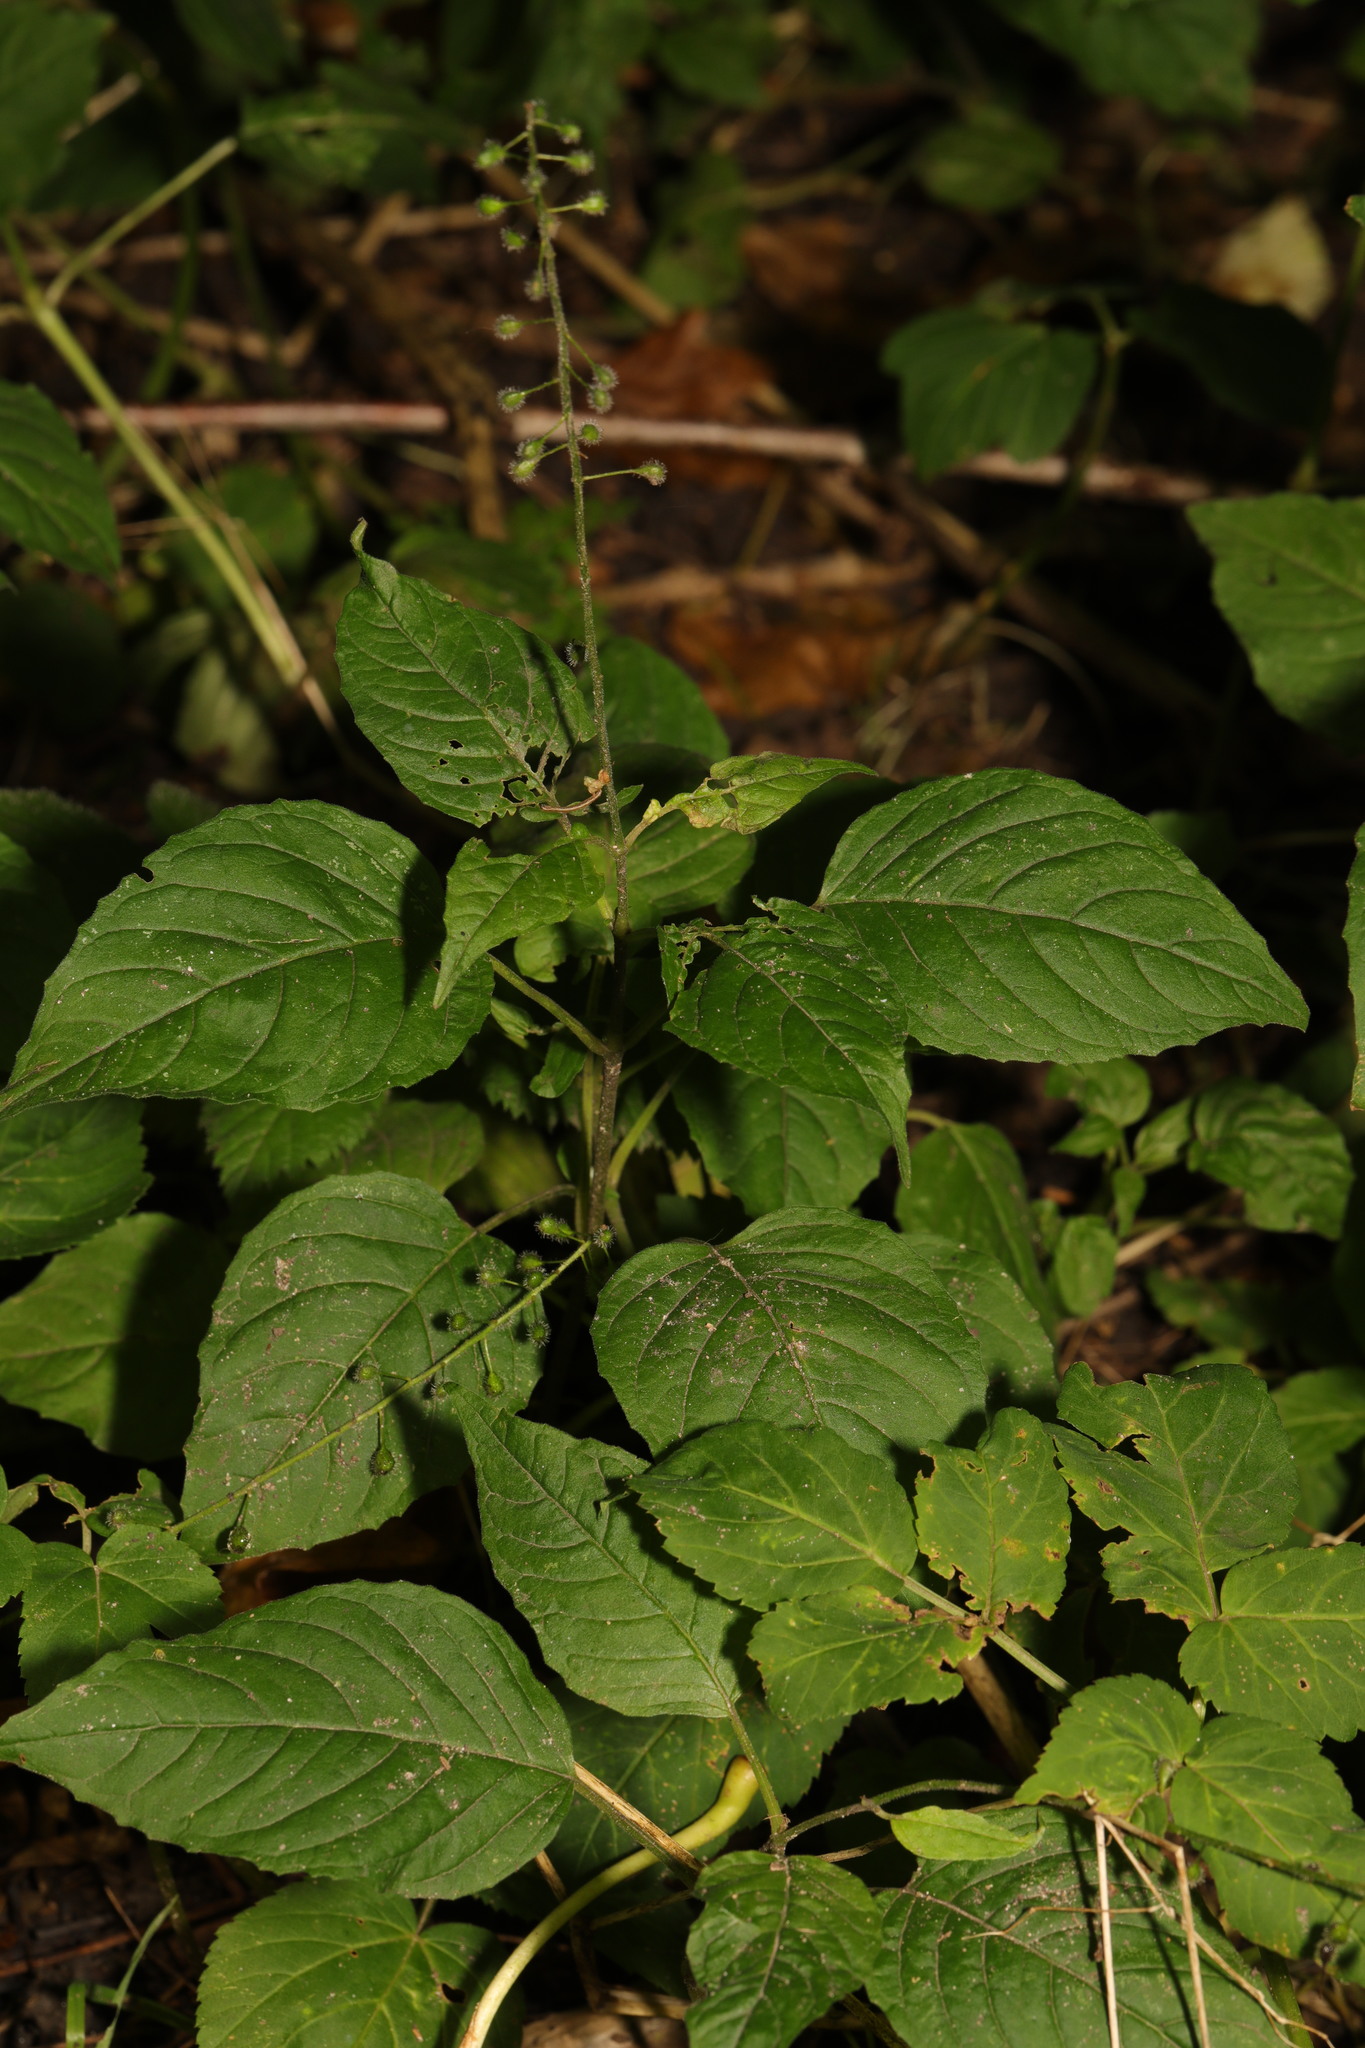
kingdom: Plantae
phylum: Tracheophyta
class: Magnoliopsida
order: Myrtales
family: Onagraceae
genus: Circaea
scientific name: Circaea lutetiana
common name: Enchanter's-nightshade
